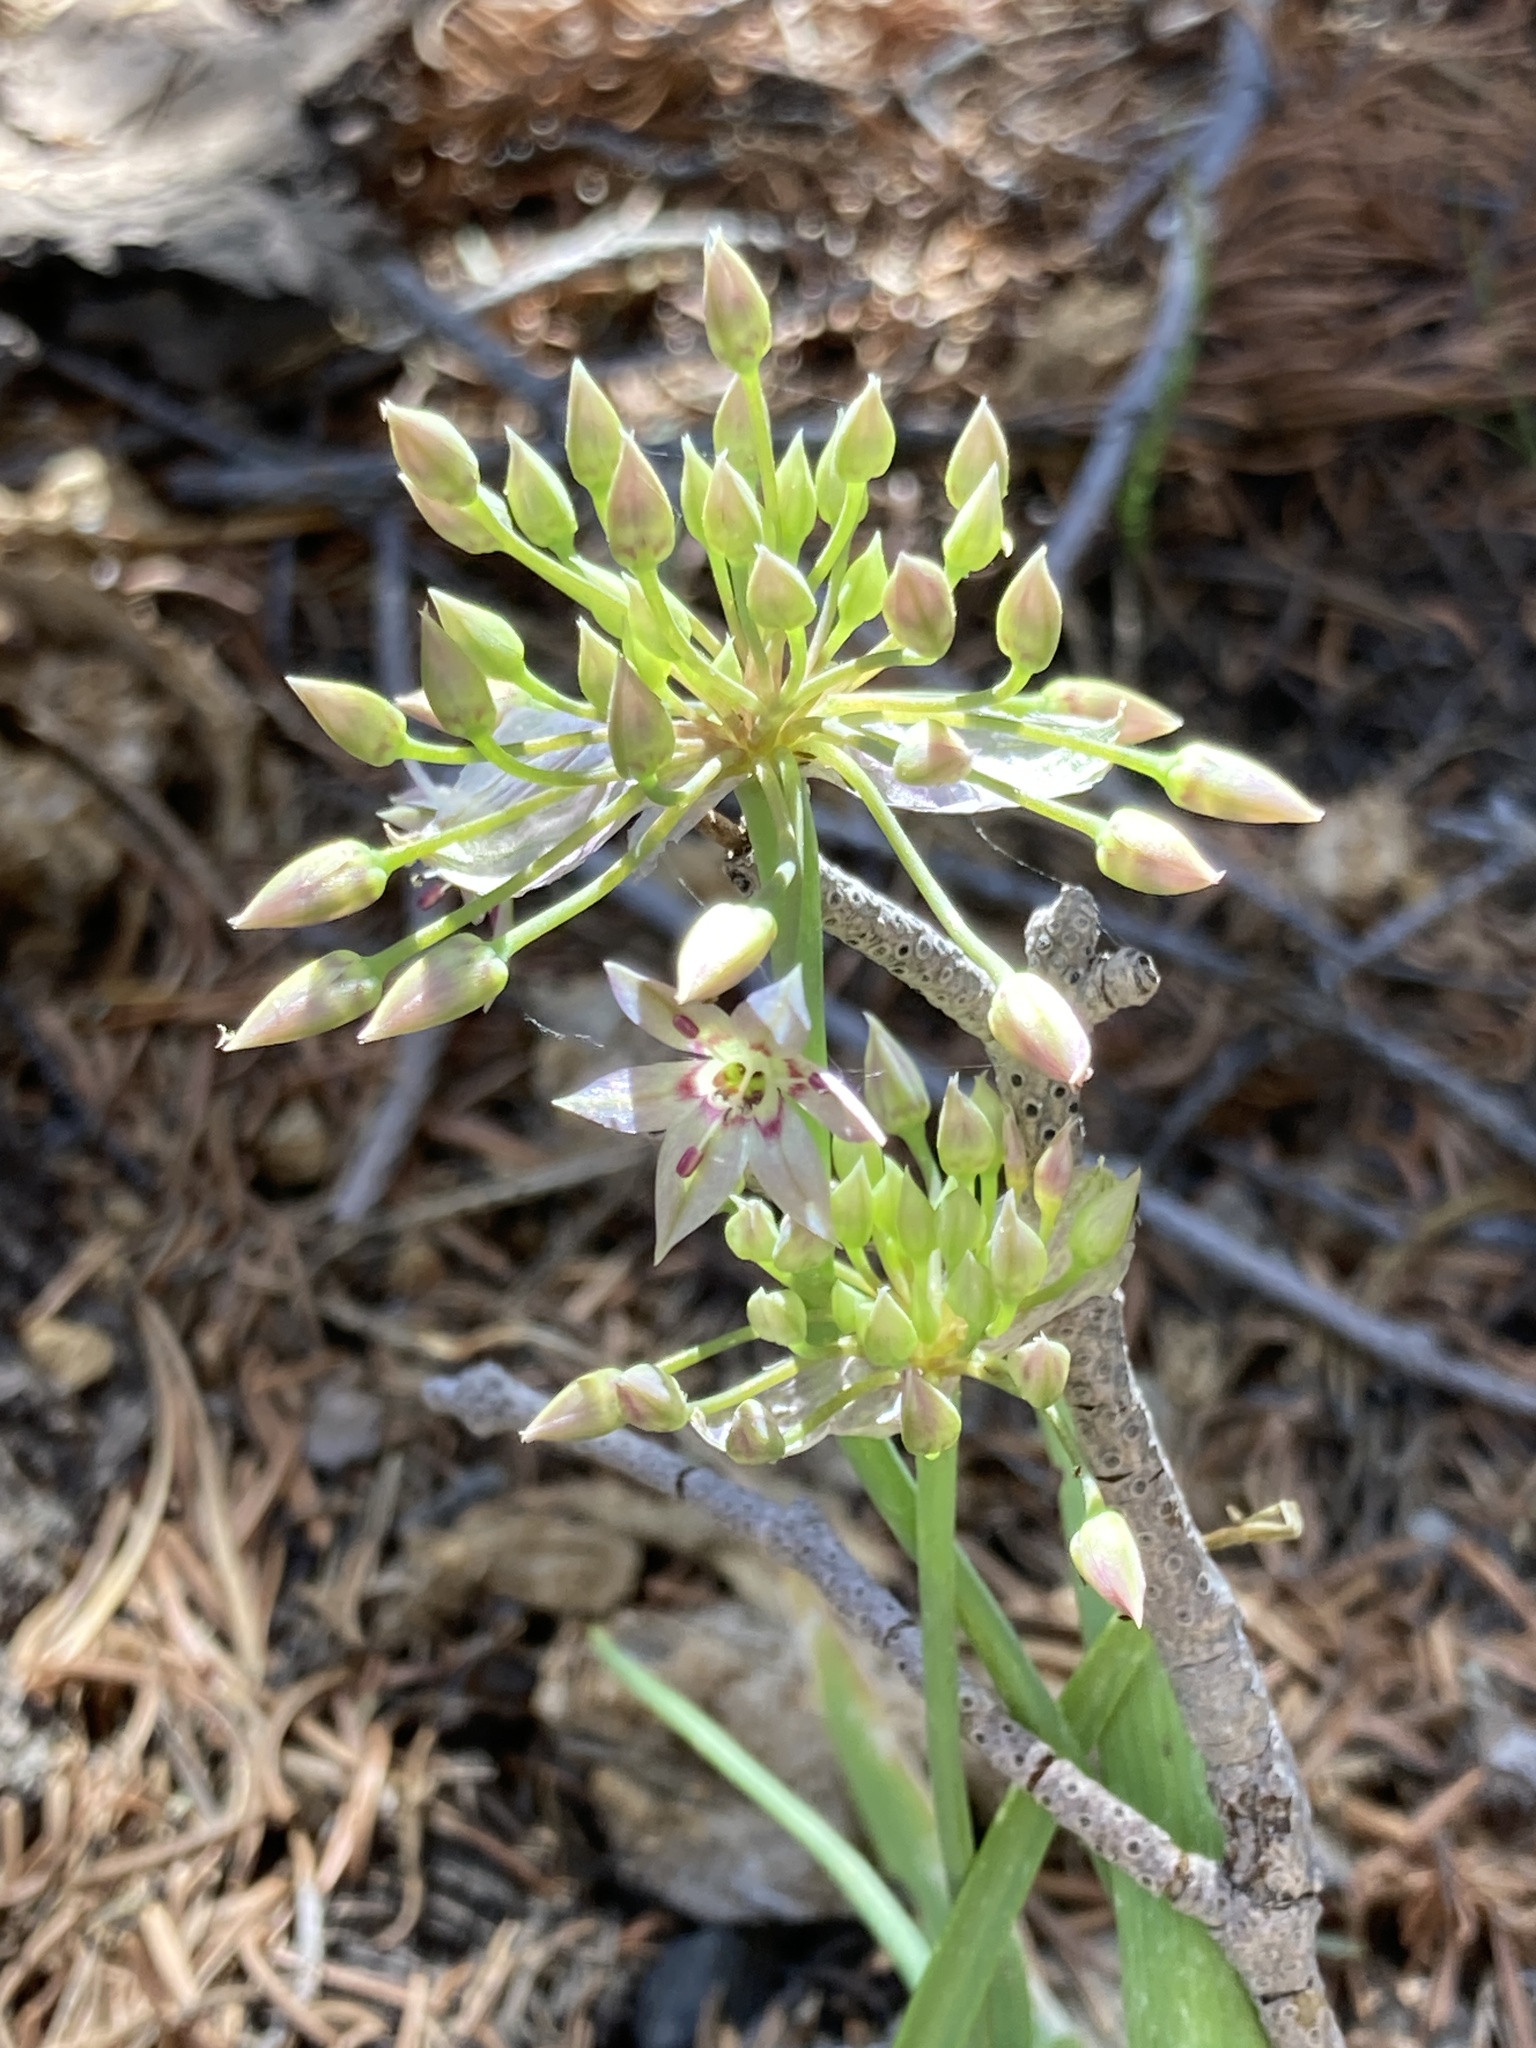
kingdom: Plantae
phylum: Tracheophyta
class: Liliopsida
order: Asparagales
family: Amaryllidaceae
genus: Allium
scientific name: Allium campanulatum
